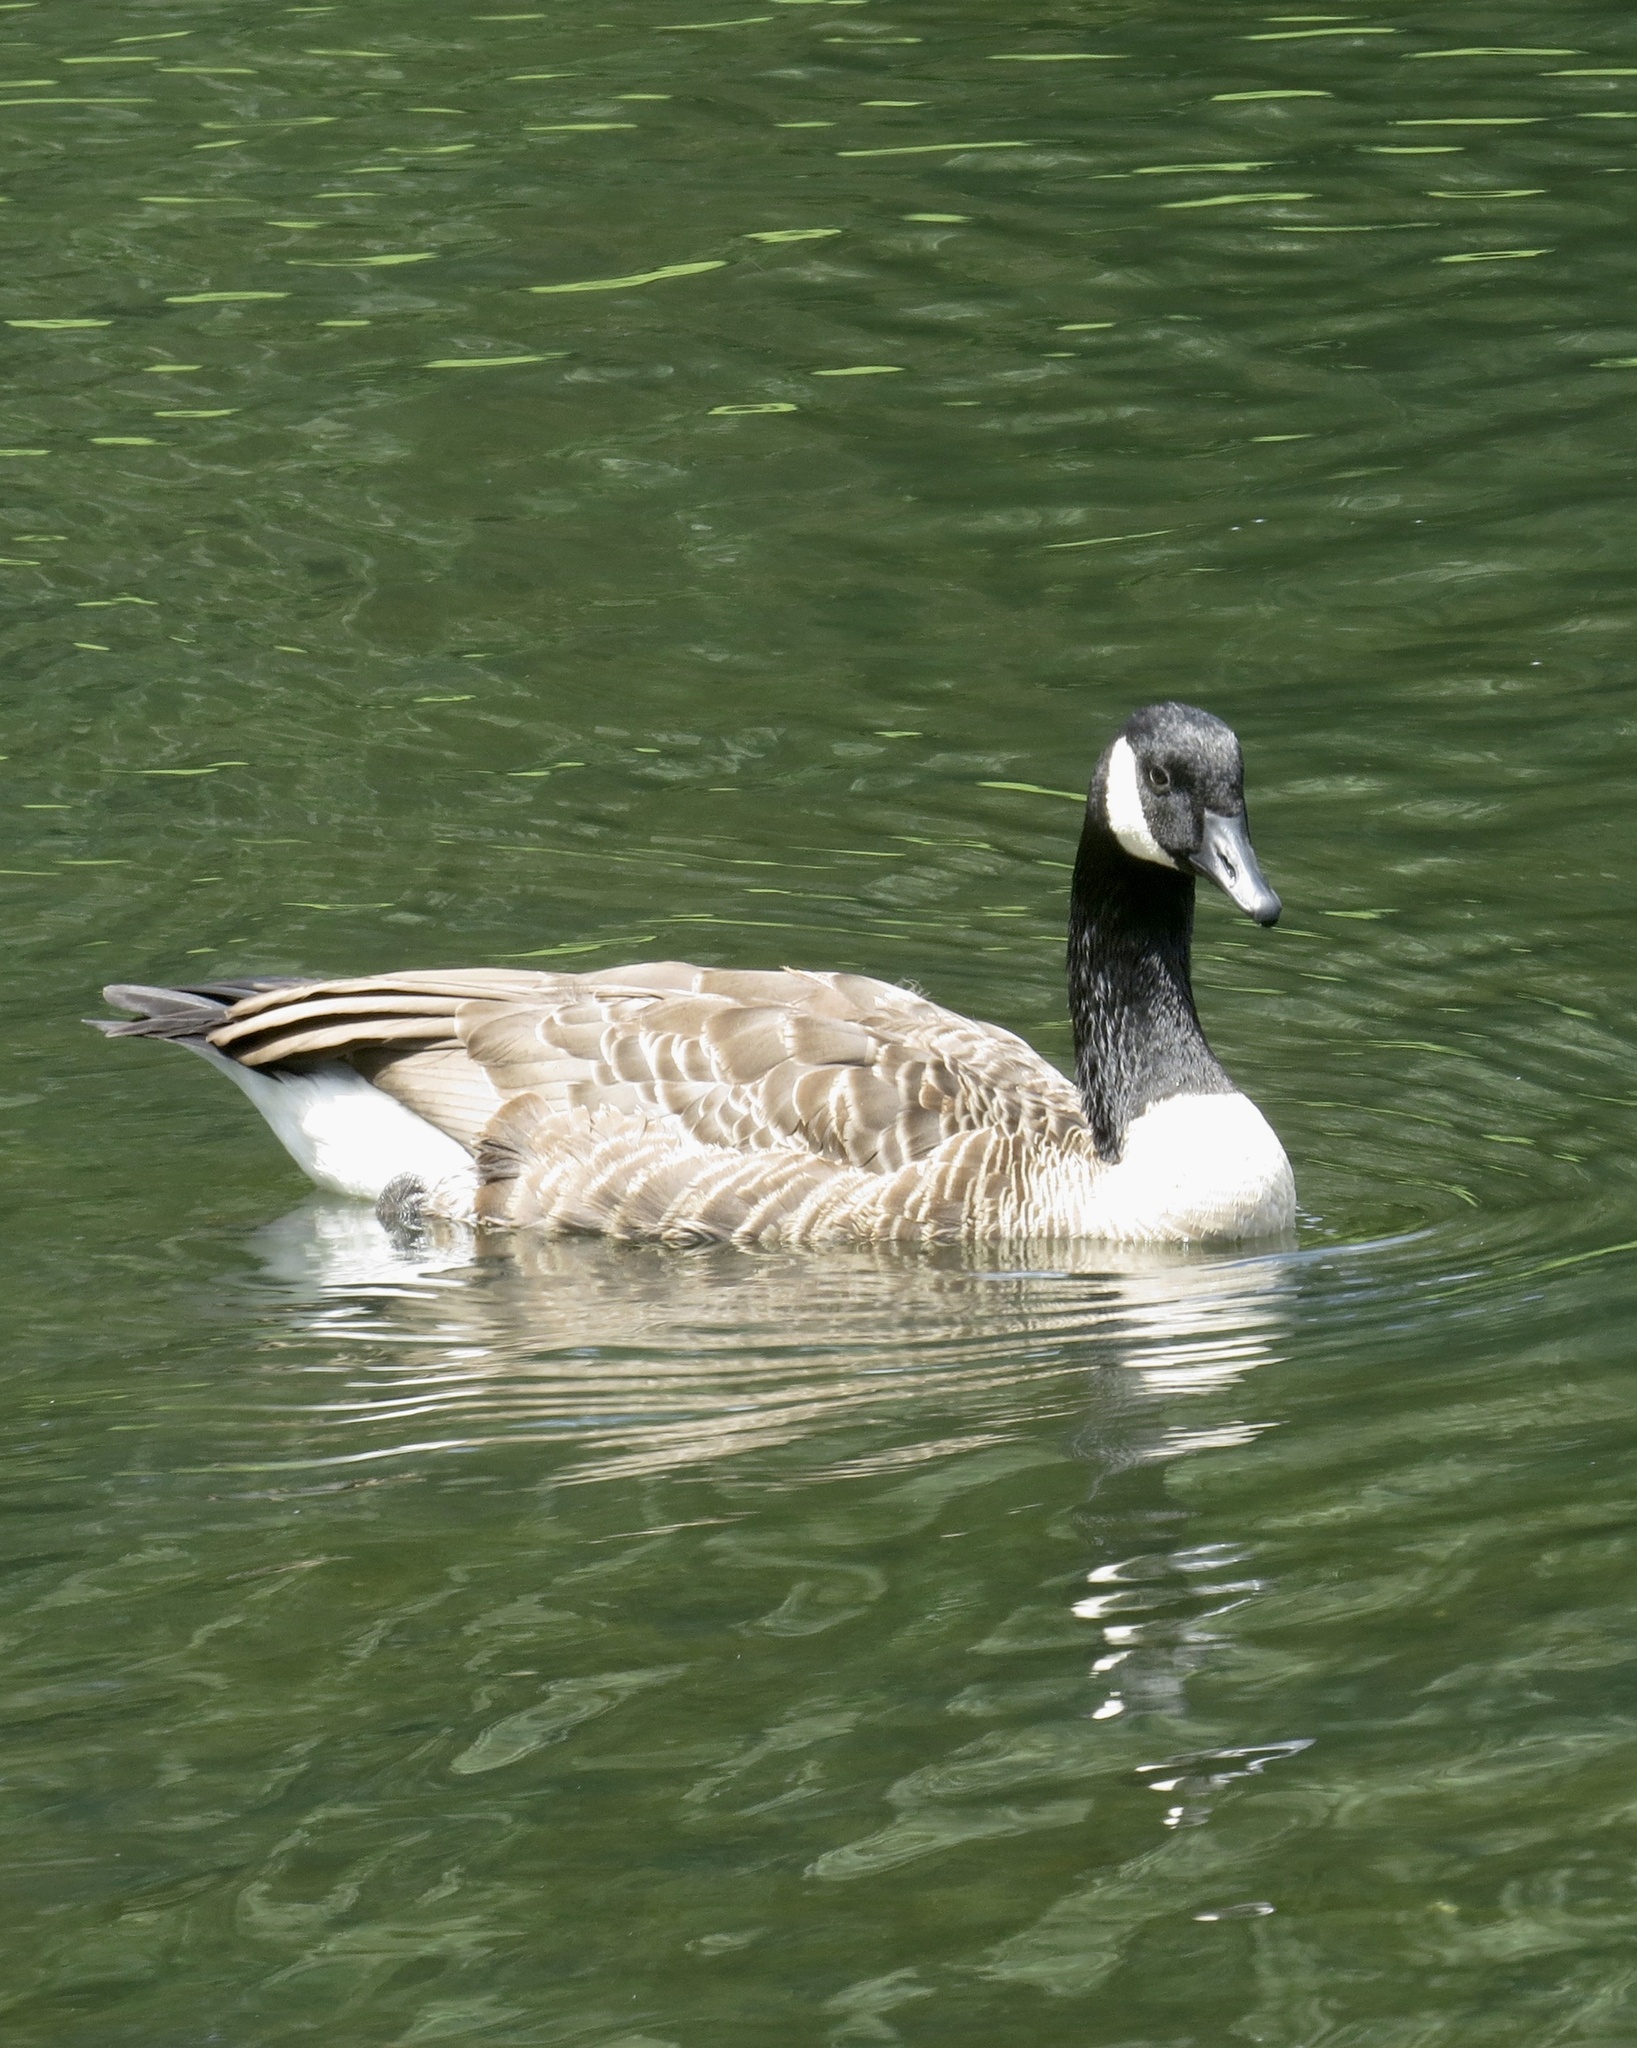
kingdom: Animalia
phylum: Chordata
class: Aves
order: Anseriformes
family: Anatidae
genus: Branta
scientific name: Branta canadensis
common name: Canada goose
